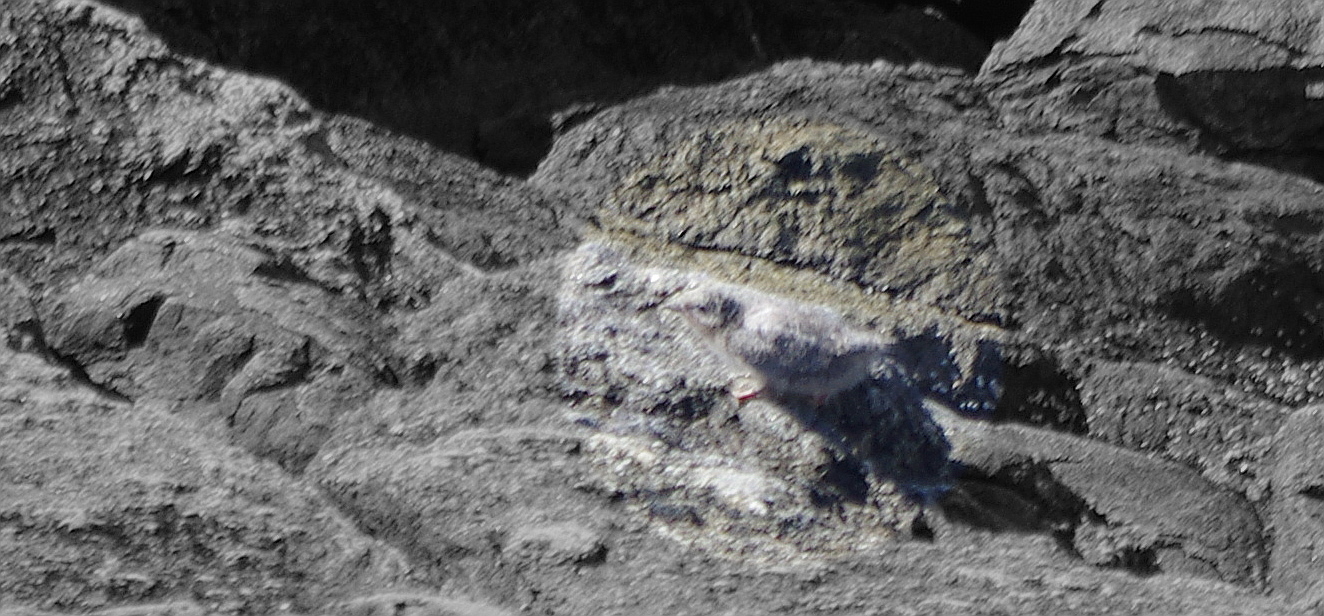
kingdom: Animalia
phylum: Chordata
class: Aves
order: Charadriiformes
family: Laridae
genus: Sterna
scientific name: Sterna paradisaea
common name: Arctic tern
